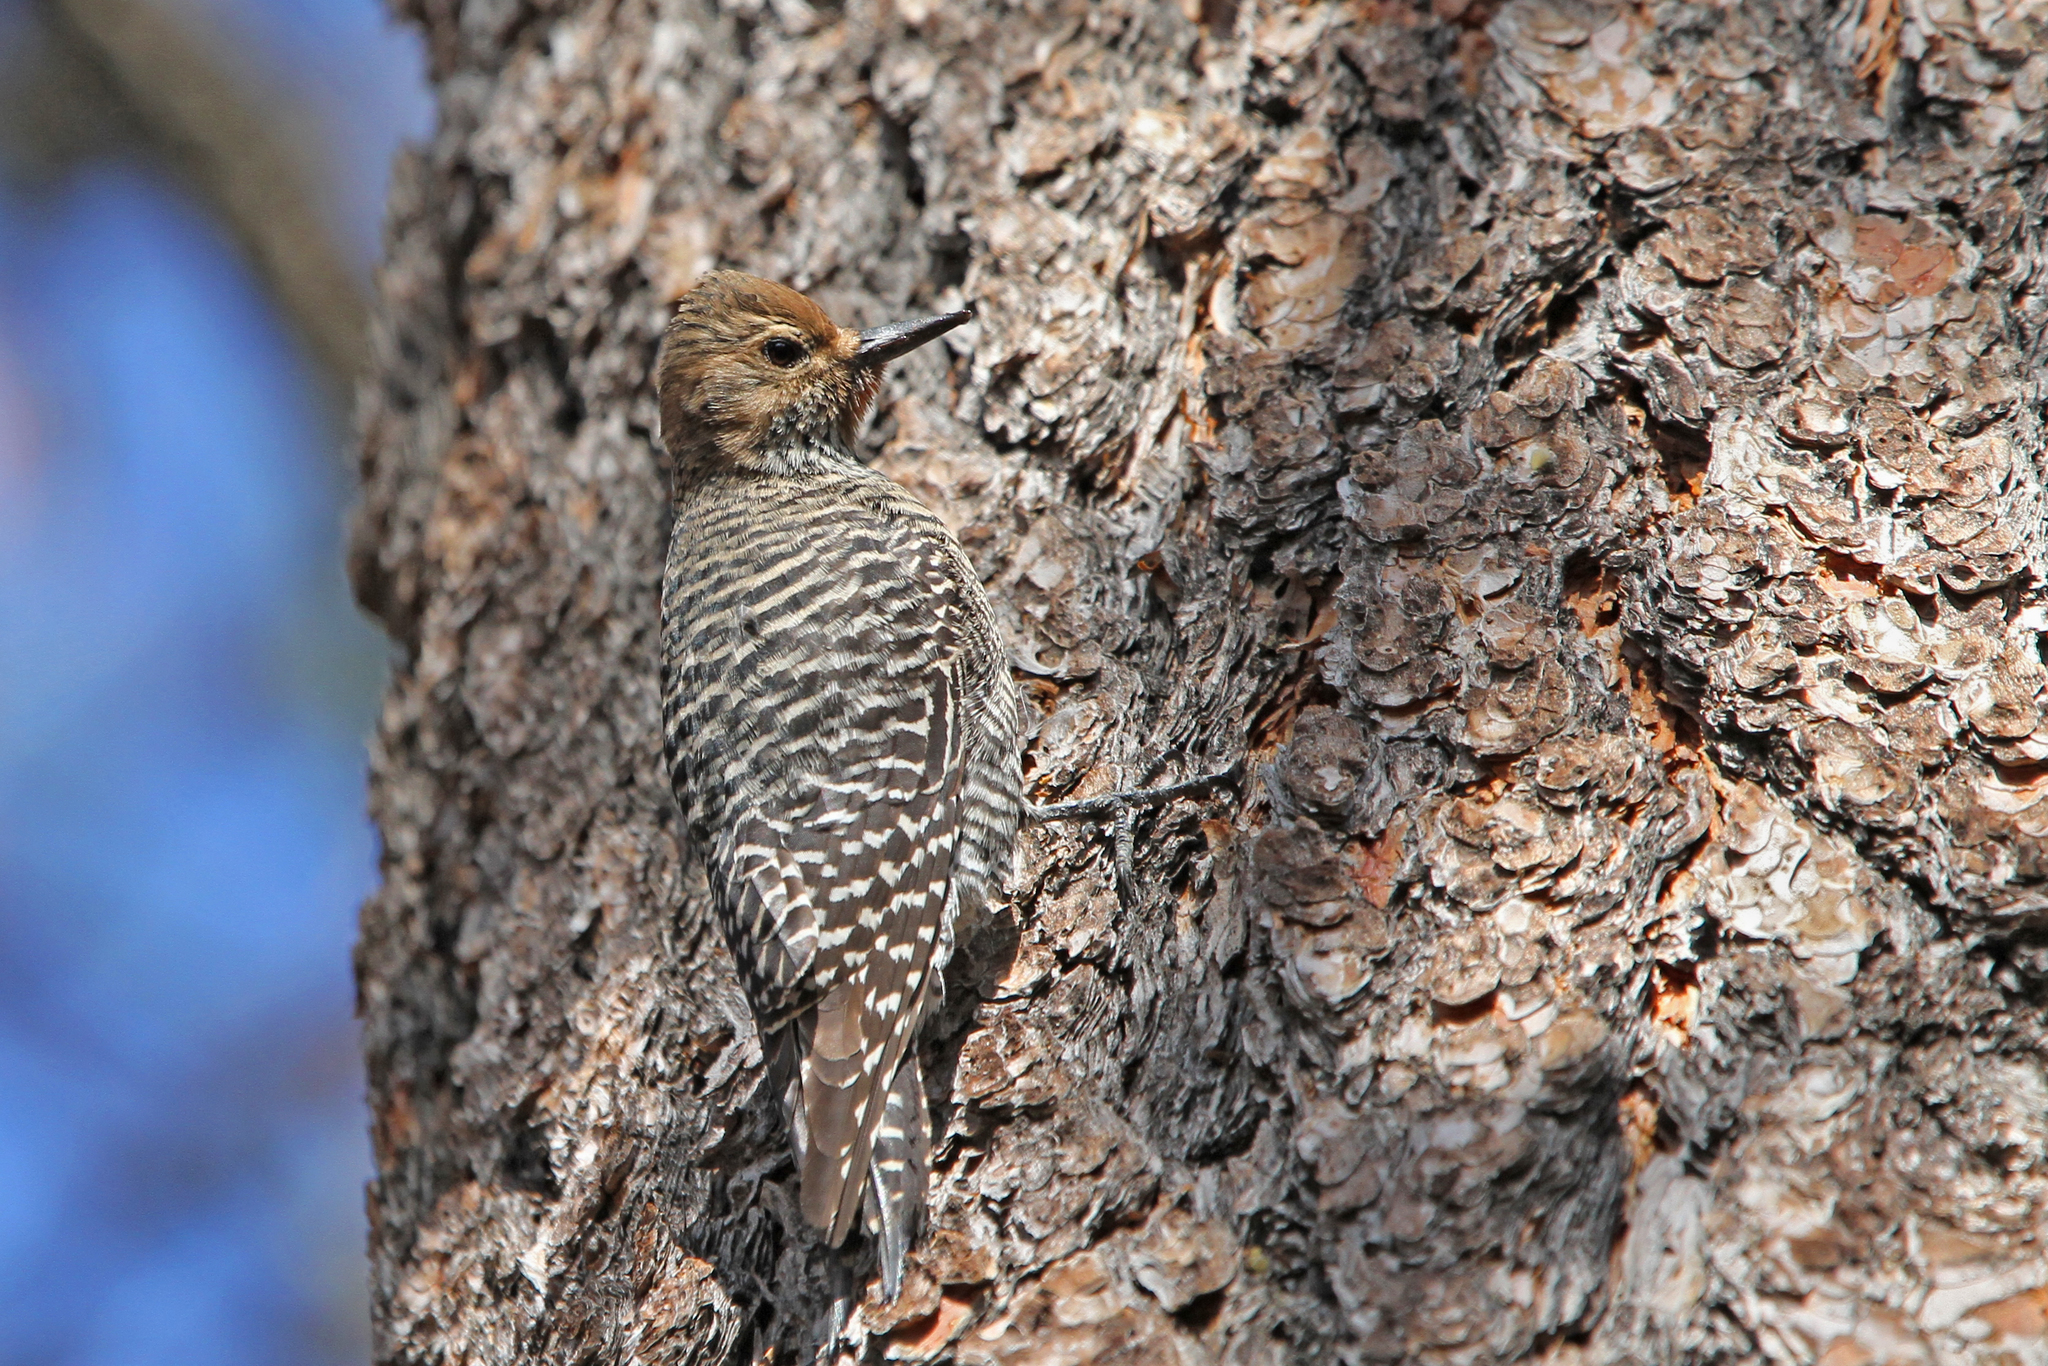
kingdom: Animalia
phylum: Chordata
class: Aves
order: Piciformes
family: Picidae
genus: Sphyrapicus
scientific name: Sphyrapicus thyroideus
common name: Williamson's sapsucker
